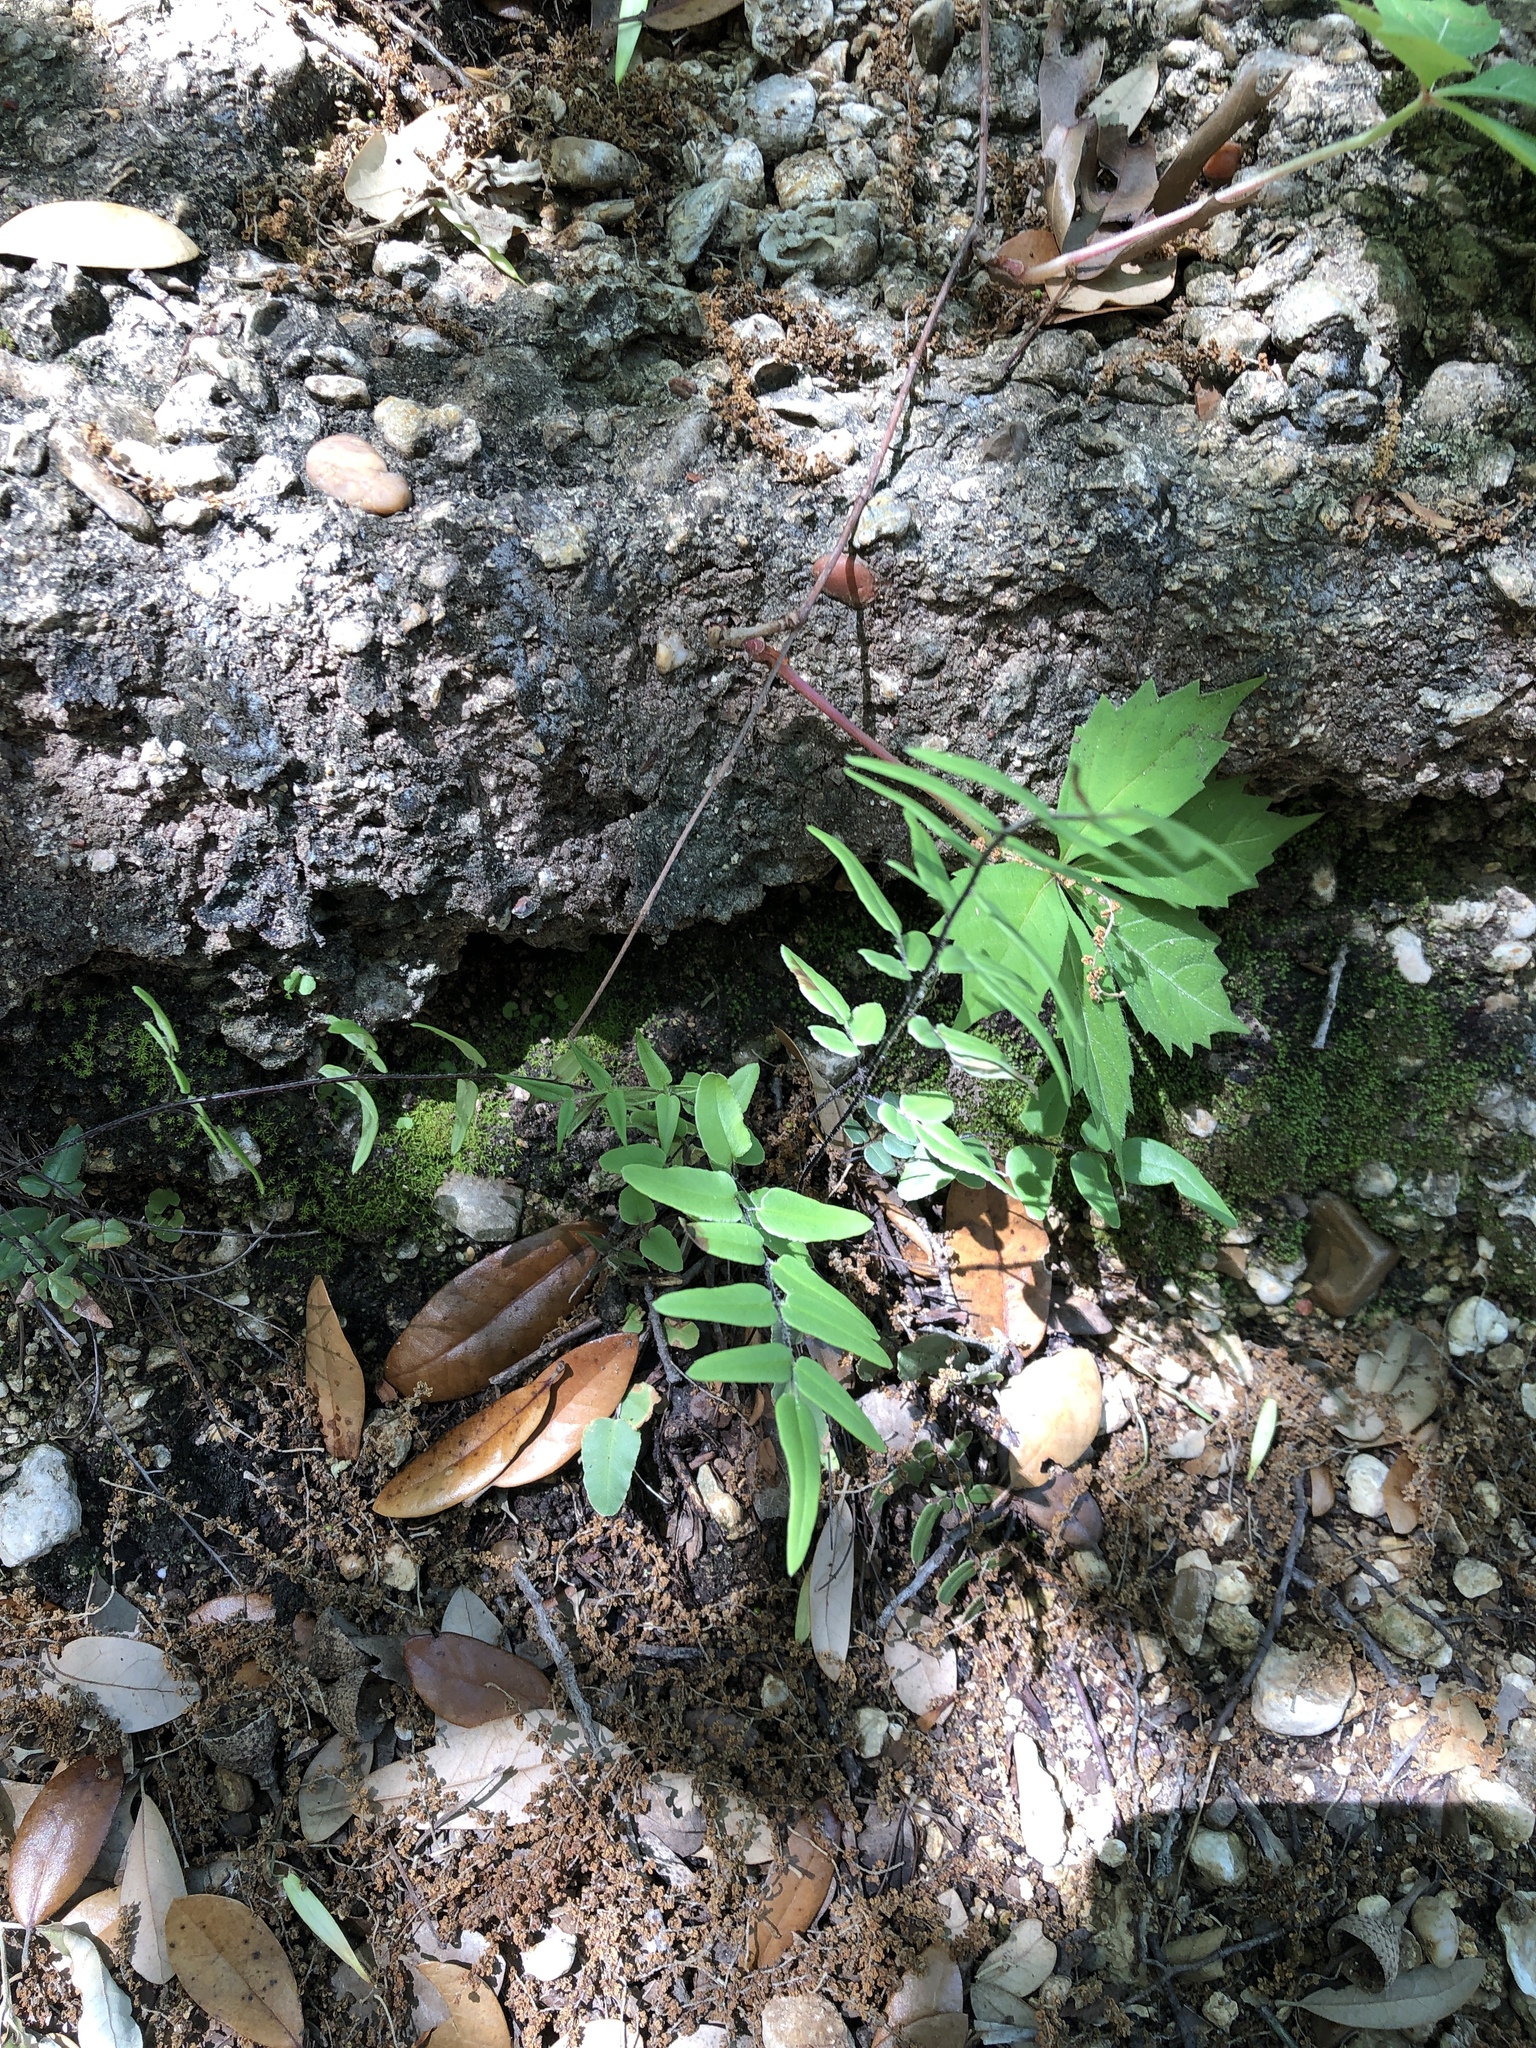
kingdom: Plantae
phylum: Tracheophyta
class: Polypodiopsida
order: Polypodiales
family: Pteridaceae
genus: Pellaea
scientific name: Pellaea atropurpurea
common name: Hairy cliffbrake
